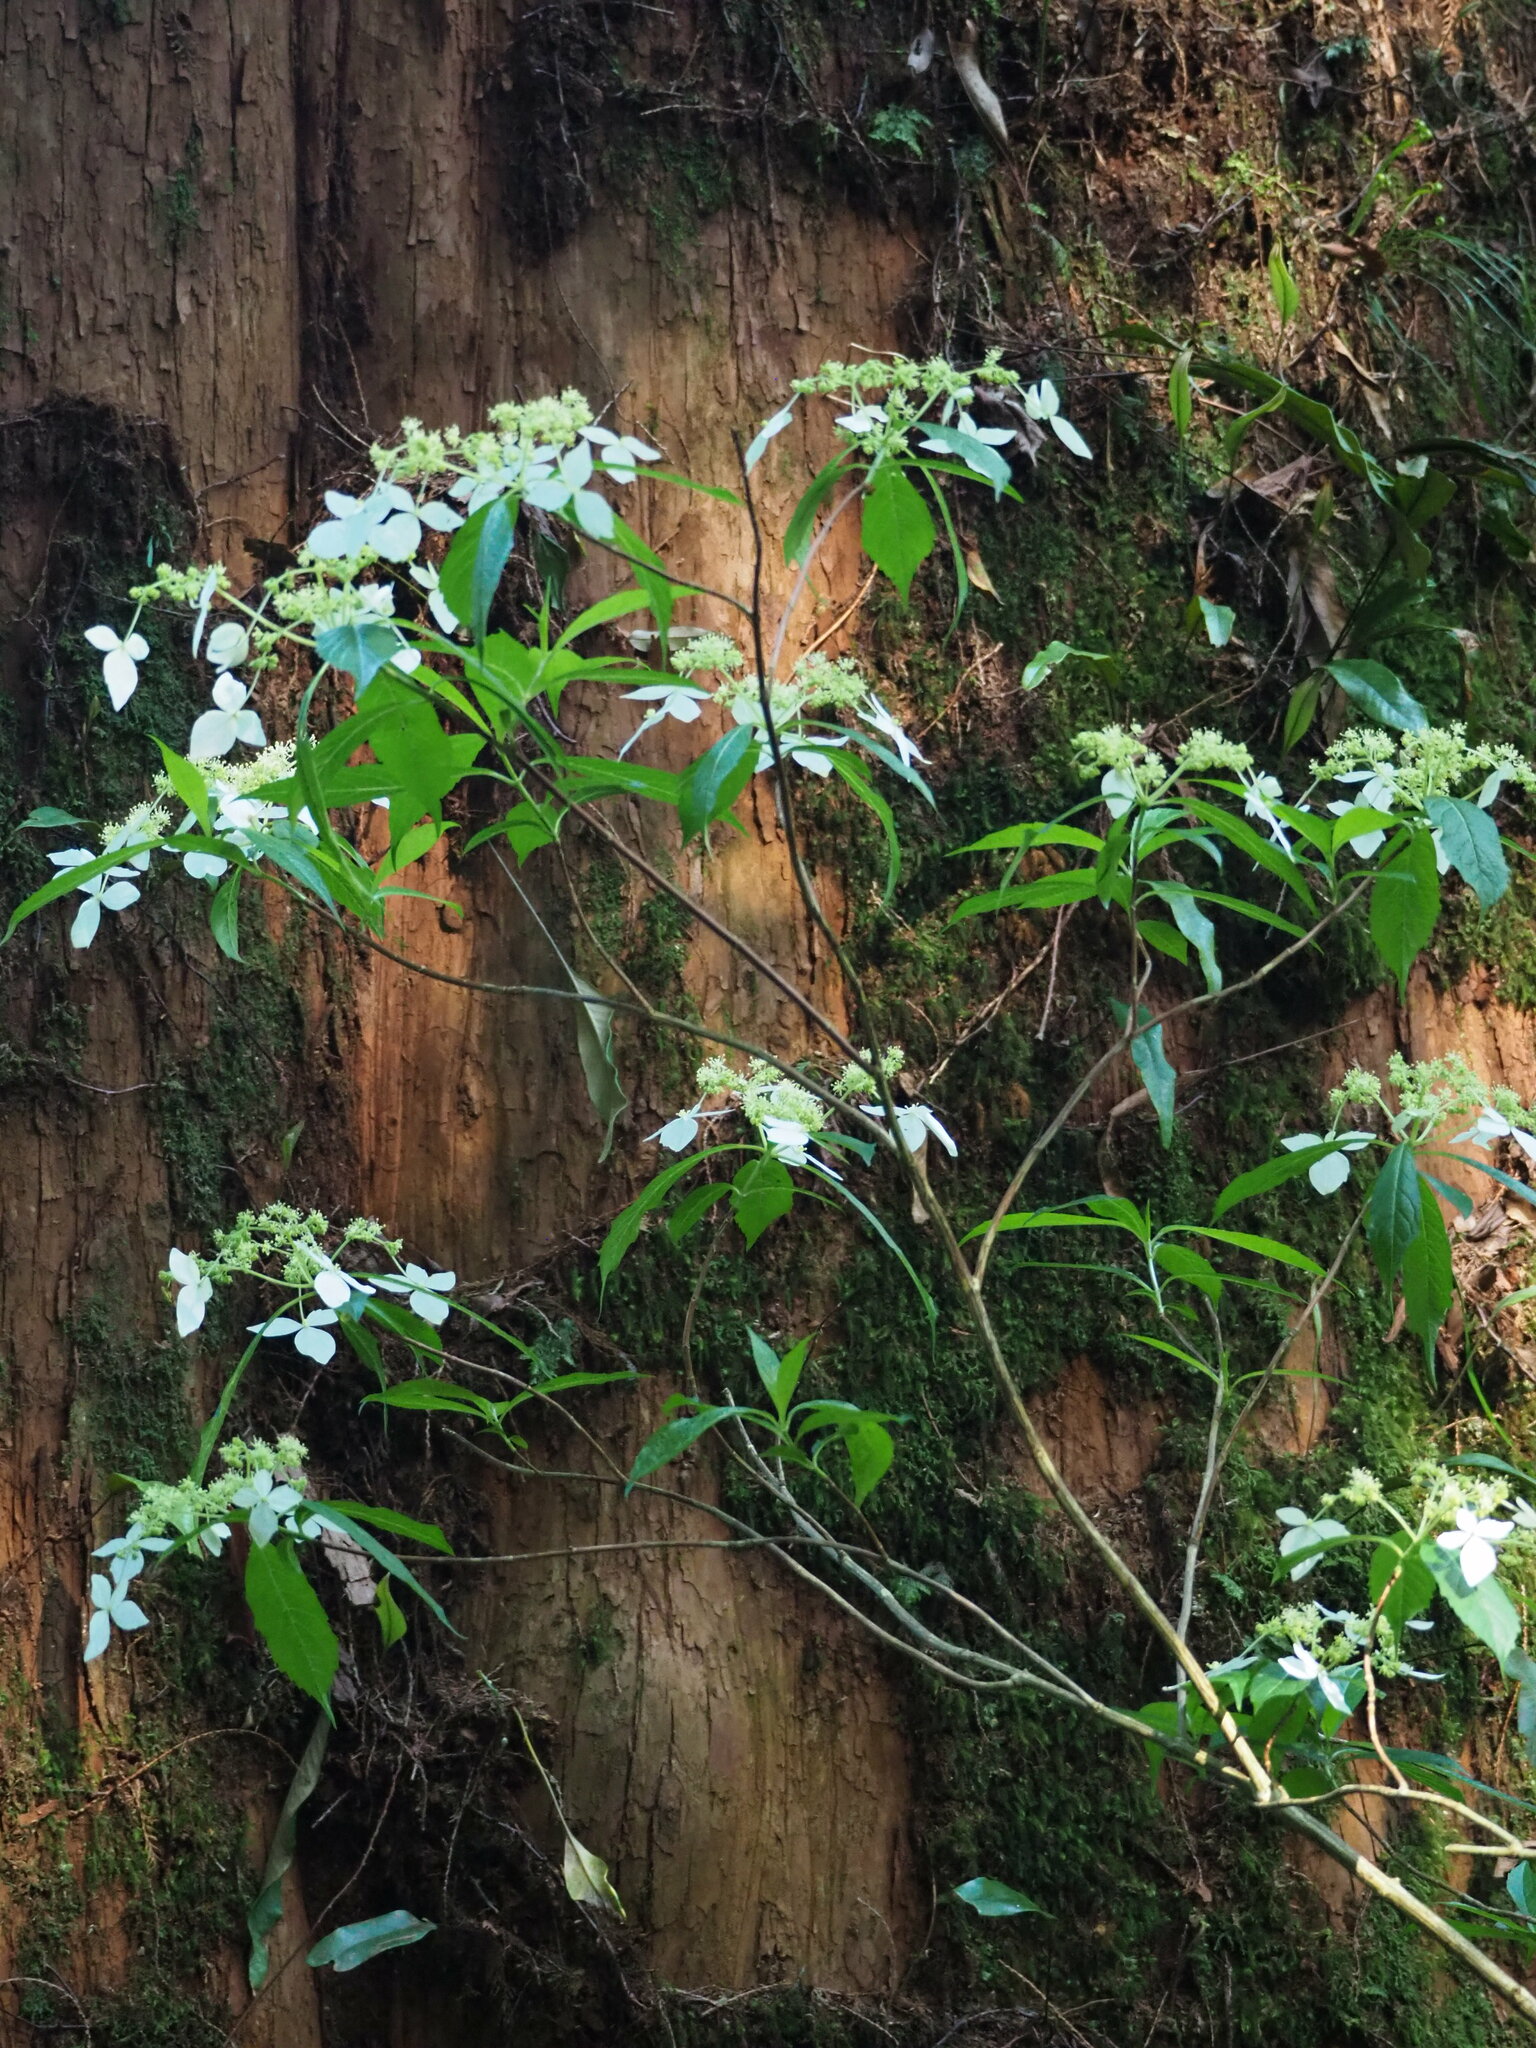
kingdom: Plantae
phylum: Tracheophyta
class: Magnoliopsida
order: Cornales
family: Hydrangeaceae
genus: Hydrangea
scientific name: Hydrangea chinensis
